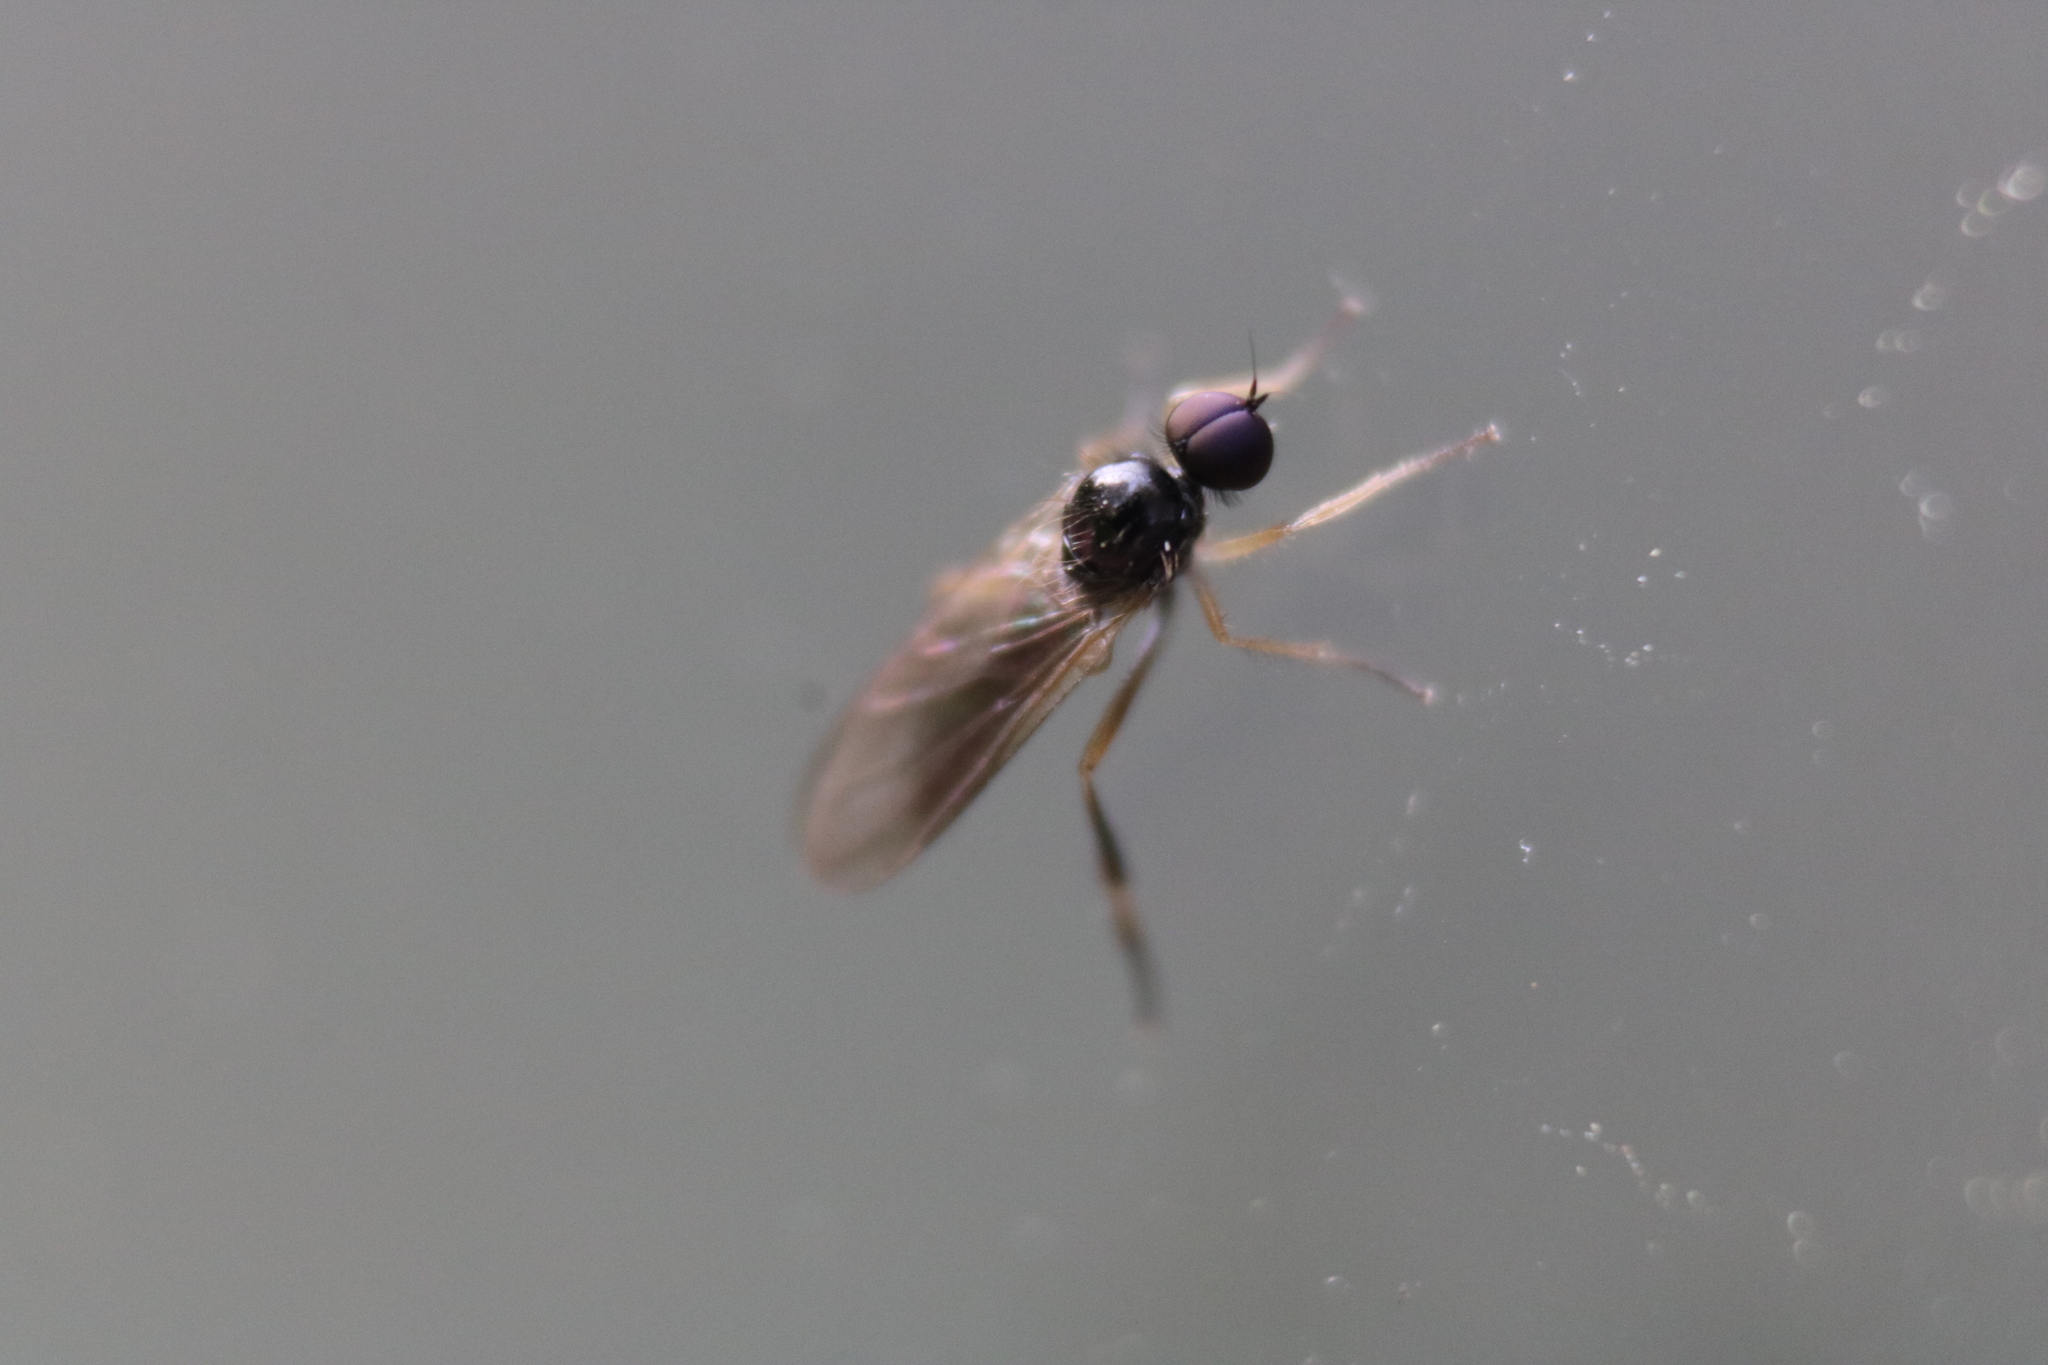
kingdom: Animalia
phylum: Arthropoda
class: Insecta
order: Diptera
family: Hybotidae
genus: Leptopeza
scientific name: Leptopeza flavipes
